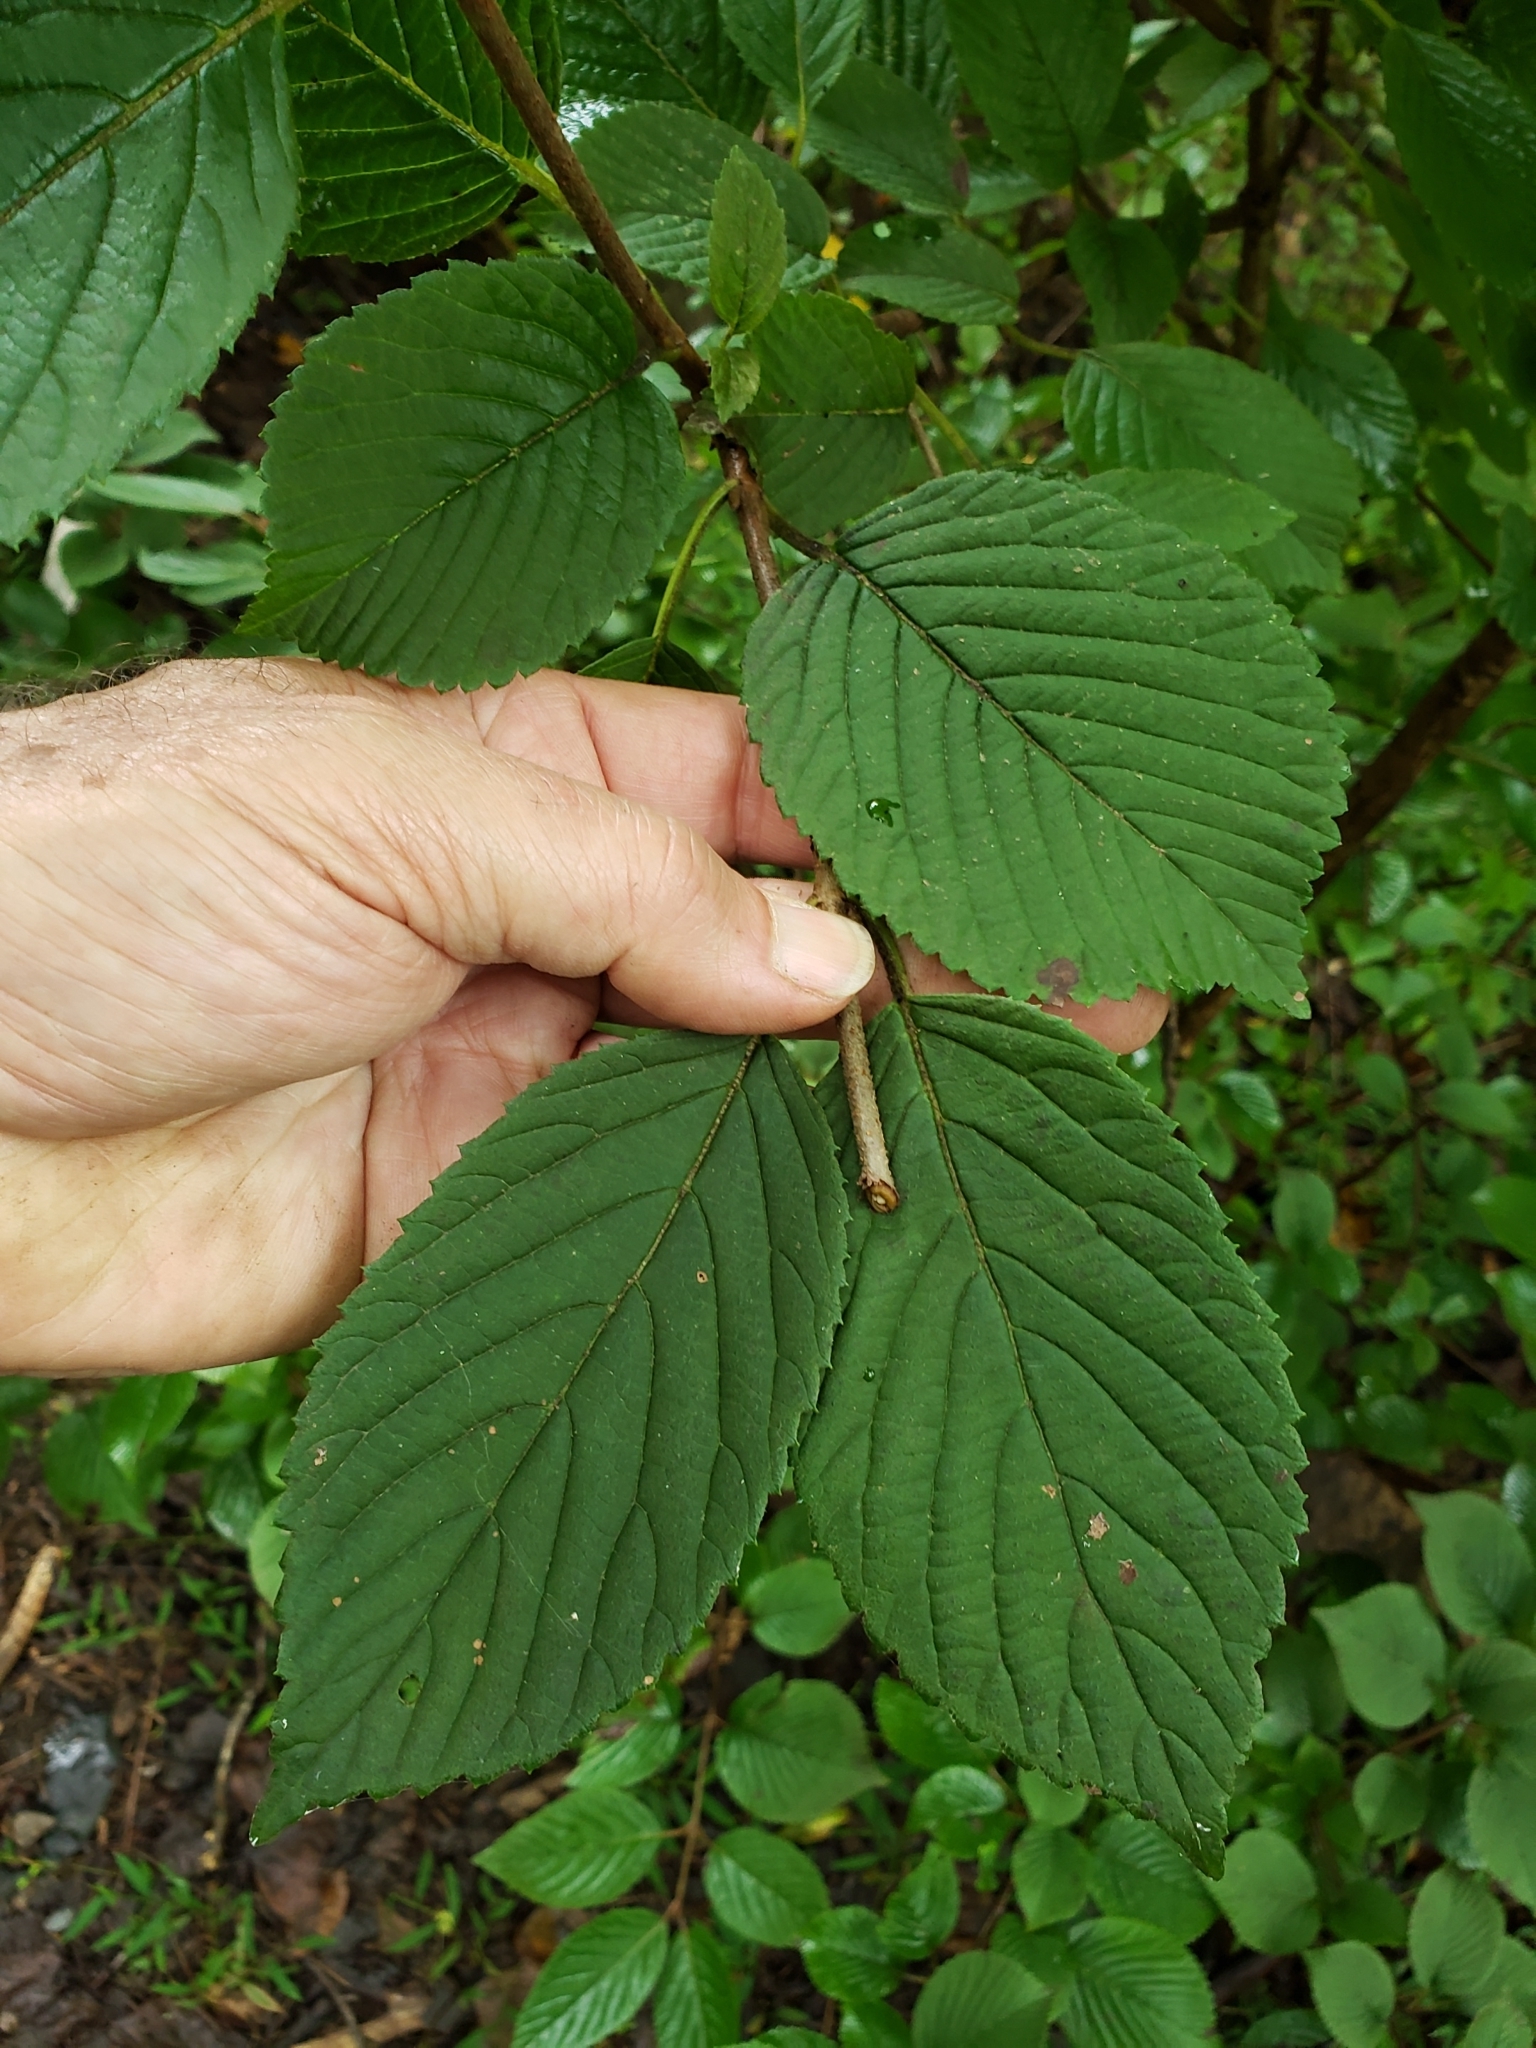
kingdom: Animalia
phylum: Arthropoda
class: Insecta
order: Lepidoptera
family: Erebidae
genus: Hyphantria
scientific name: Hyphantria cunea
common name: American white moth
